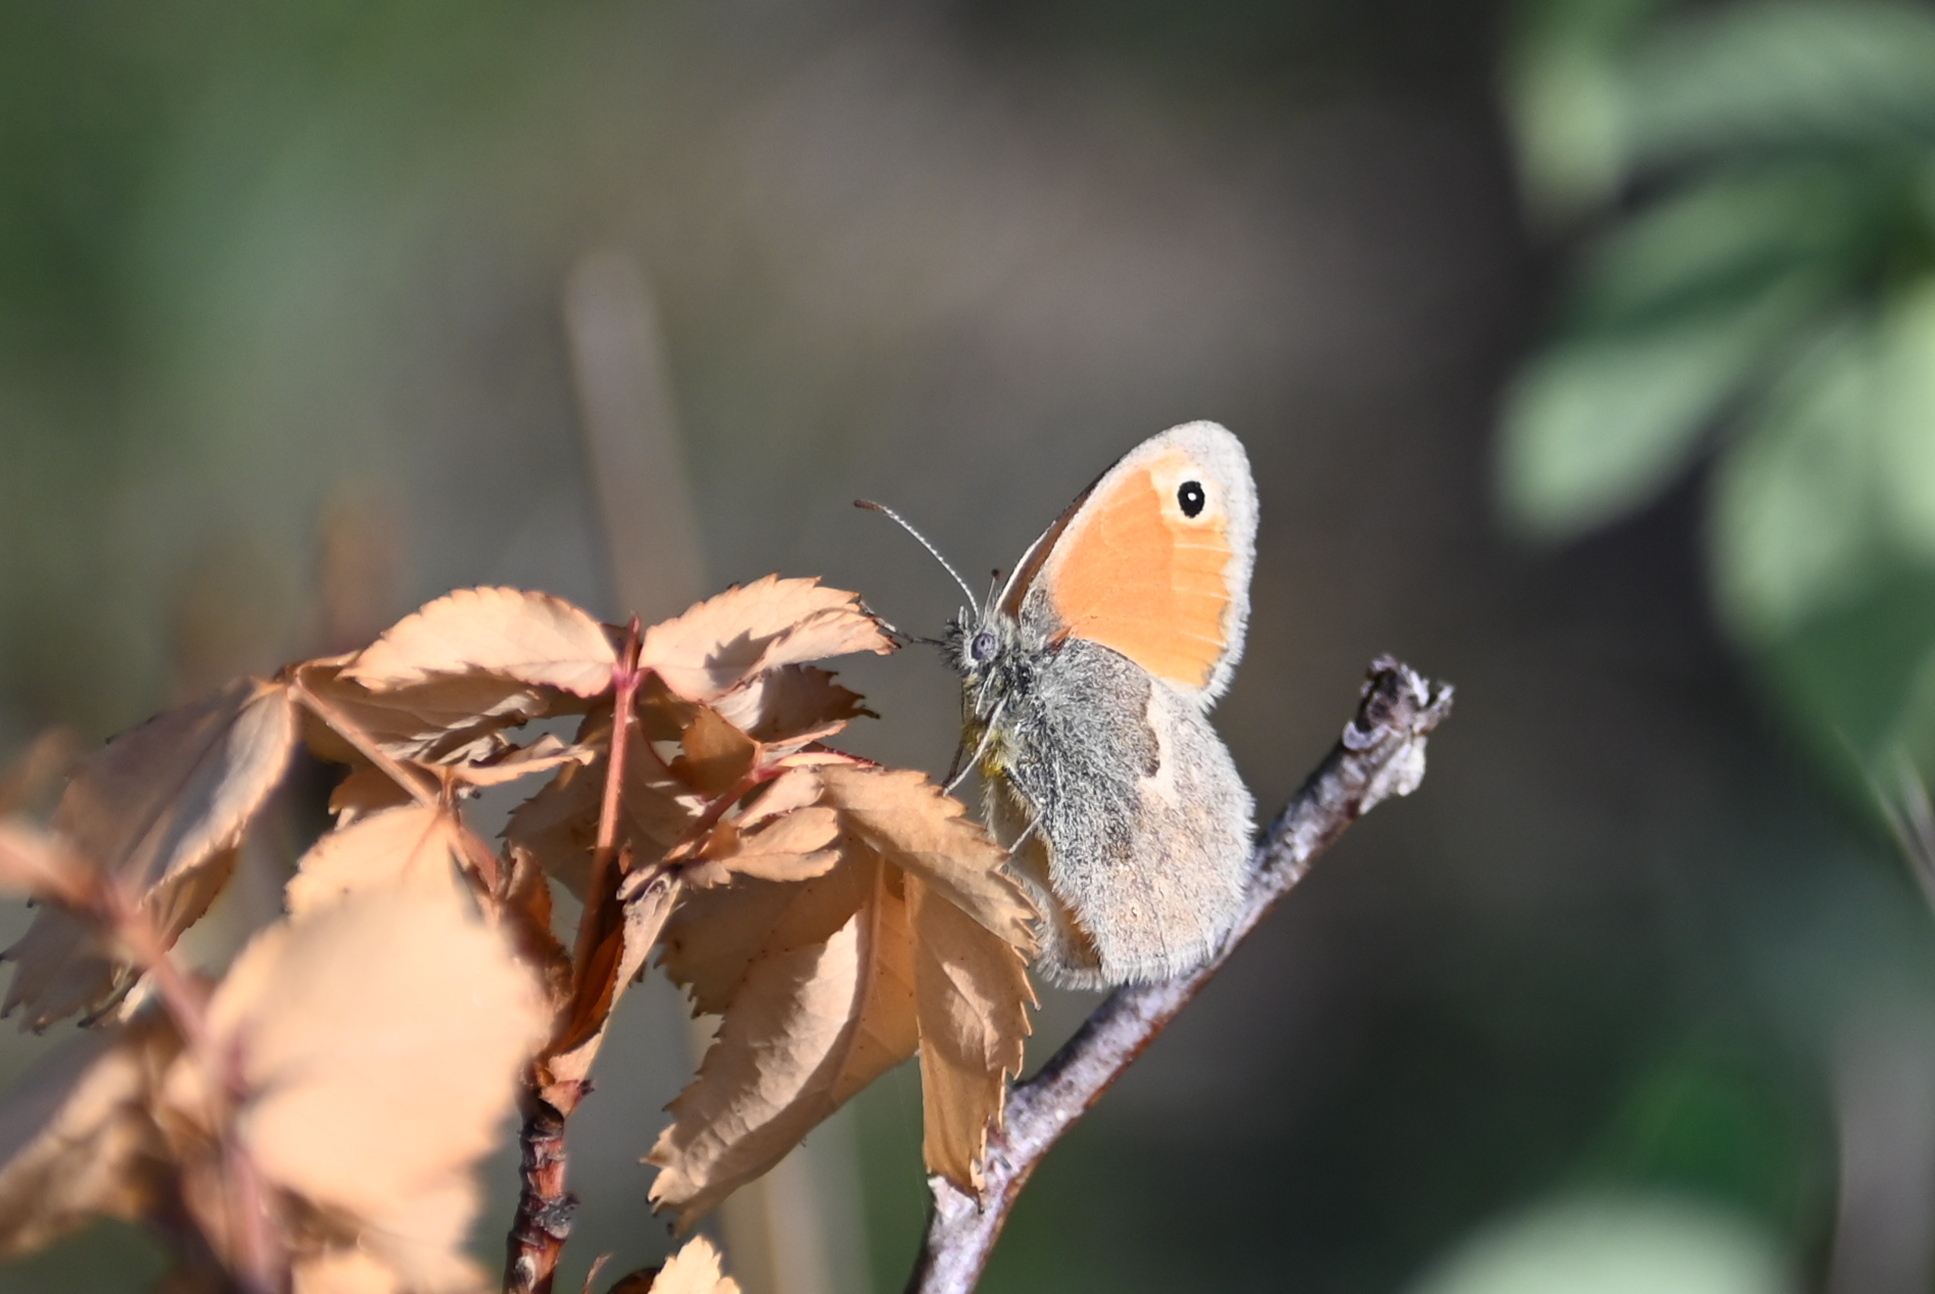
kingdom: Animalia
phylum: Arthropoda
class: Insecta
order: Lepidoptera
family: Nymphalidae
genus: Coenonympha
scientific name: Coenonympha pamphilus
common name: Small heath
